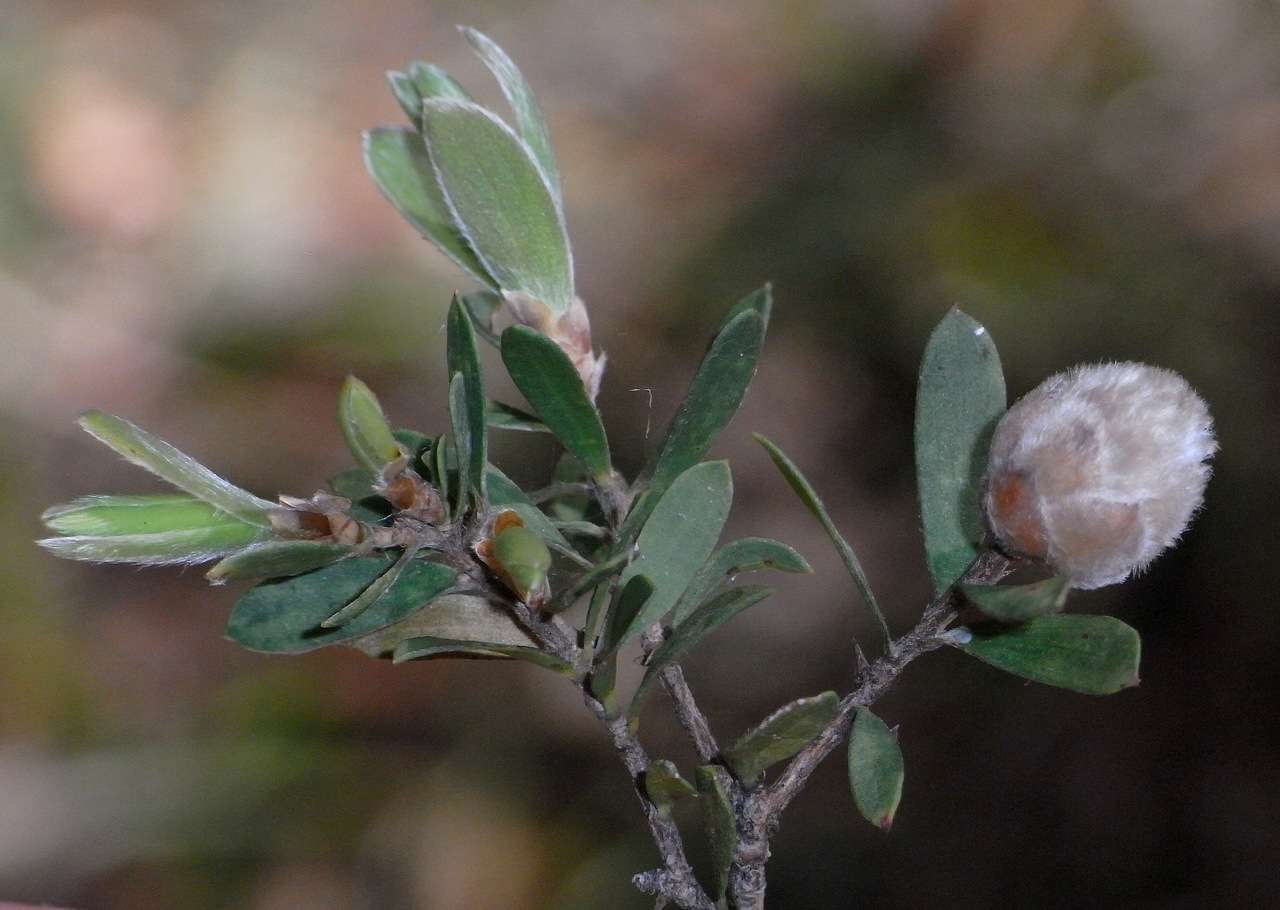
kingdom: Plantae
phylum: Tracheophyta
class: Magnoliopsida
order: Myrtales
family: Myrtaceae
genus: Leptospermum
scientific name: Leptospermum trinervium
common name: Flaky-barked tea-tree
